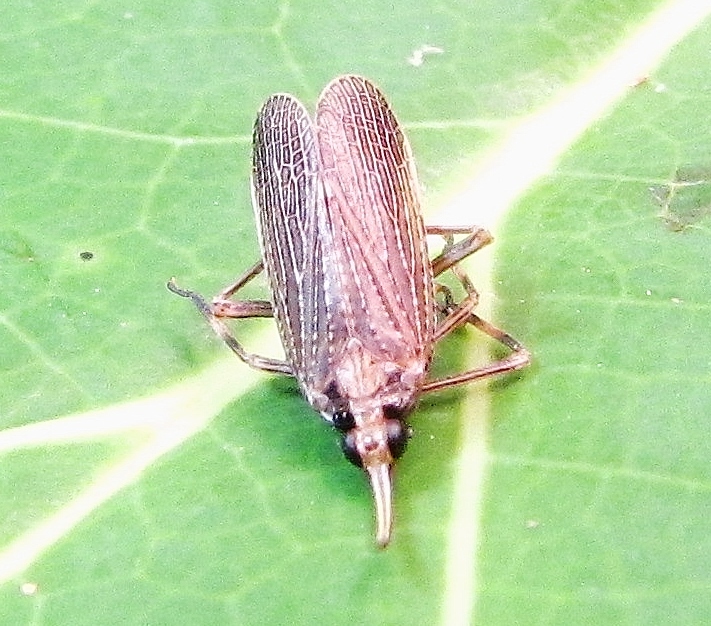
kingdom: Animalia
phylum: Arthropoda
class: Insecta
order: Hemiptera
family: Dictyopharidae
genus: Scolops
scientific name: Scolops sulcipes
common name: Partridge planthopper
